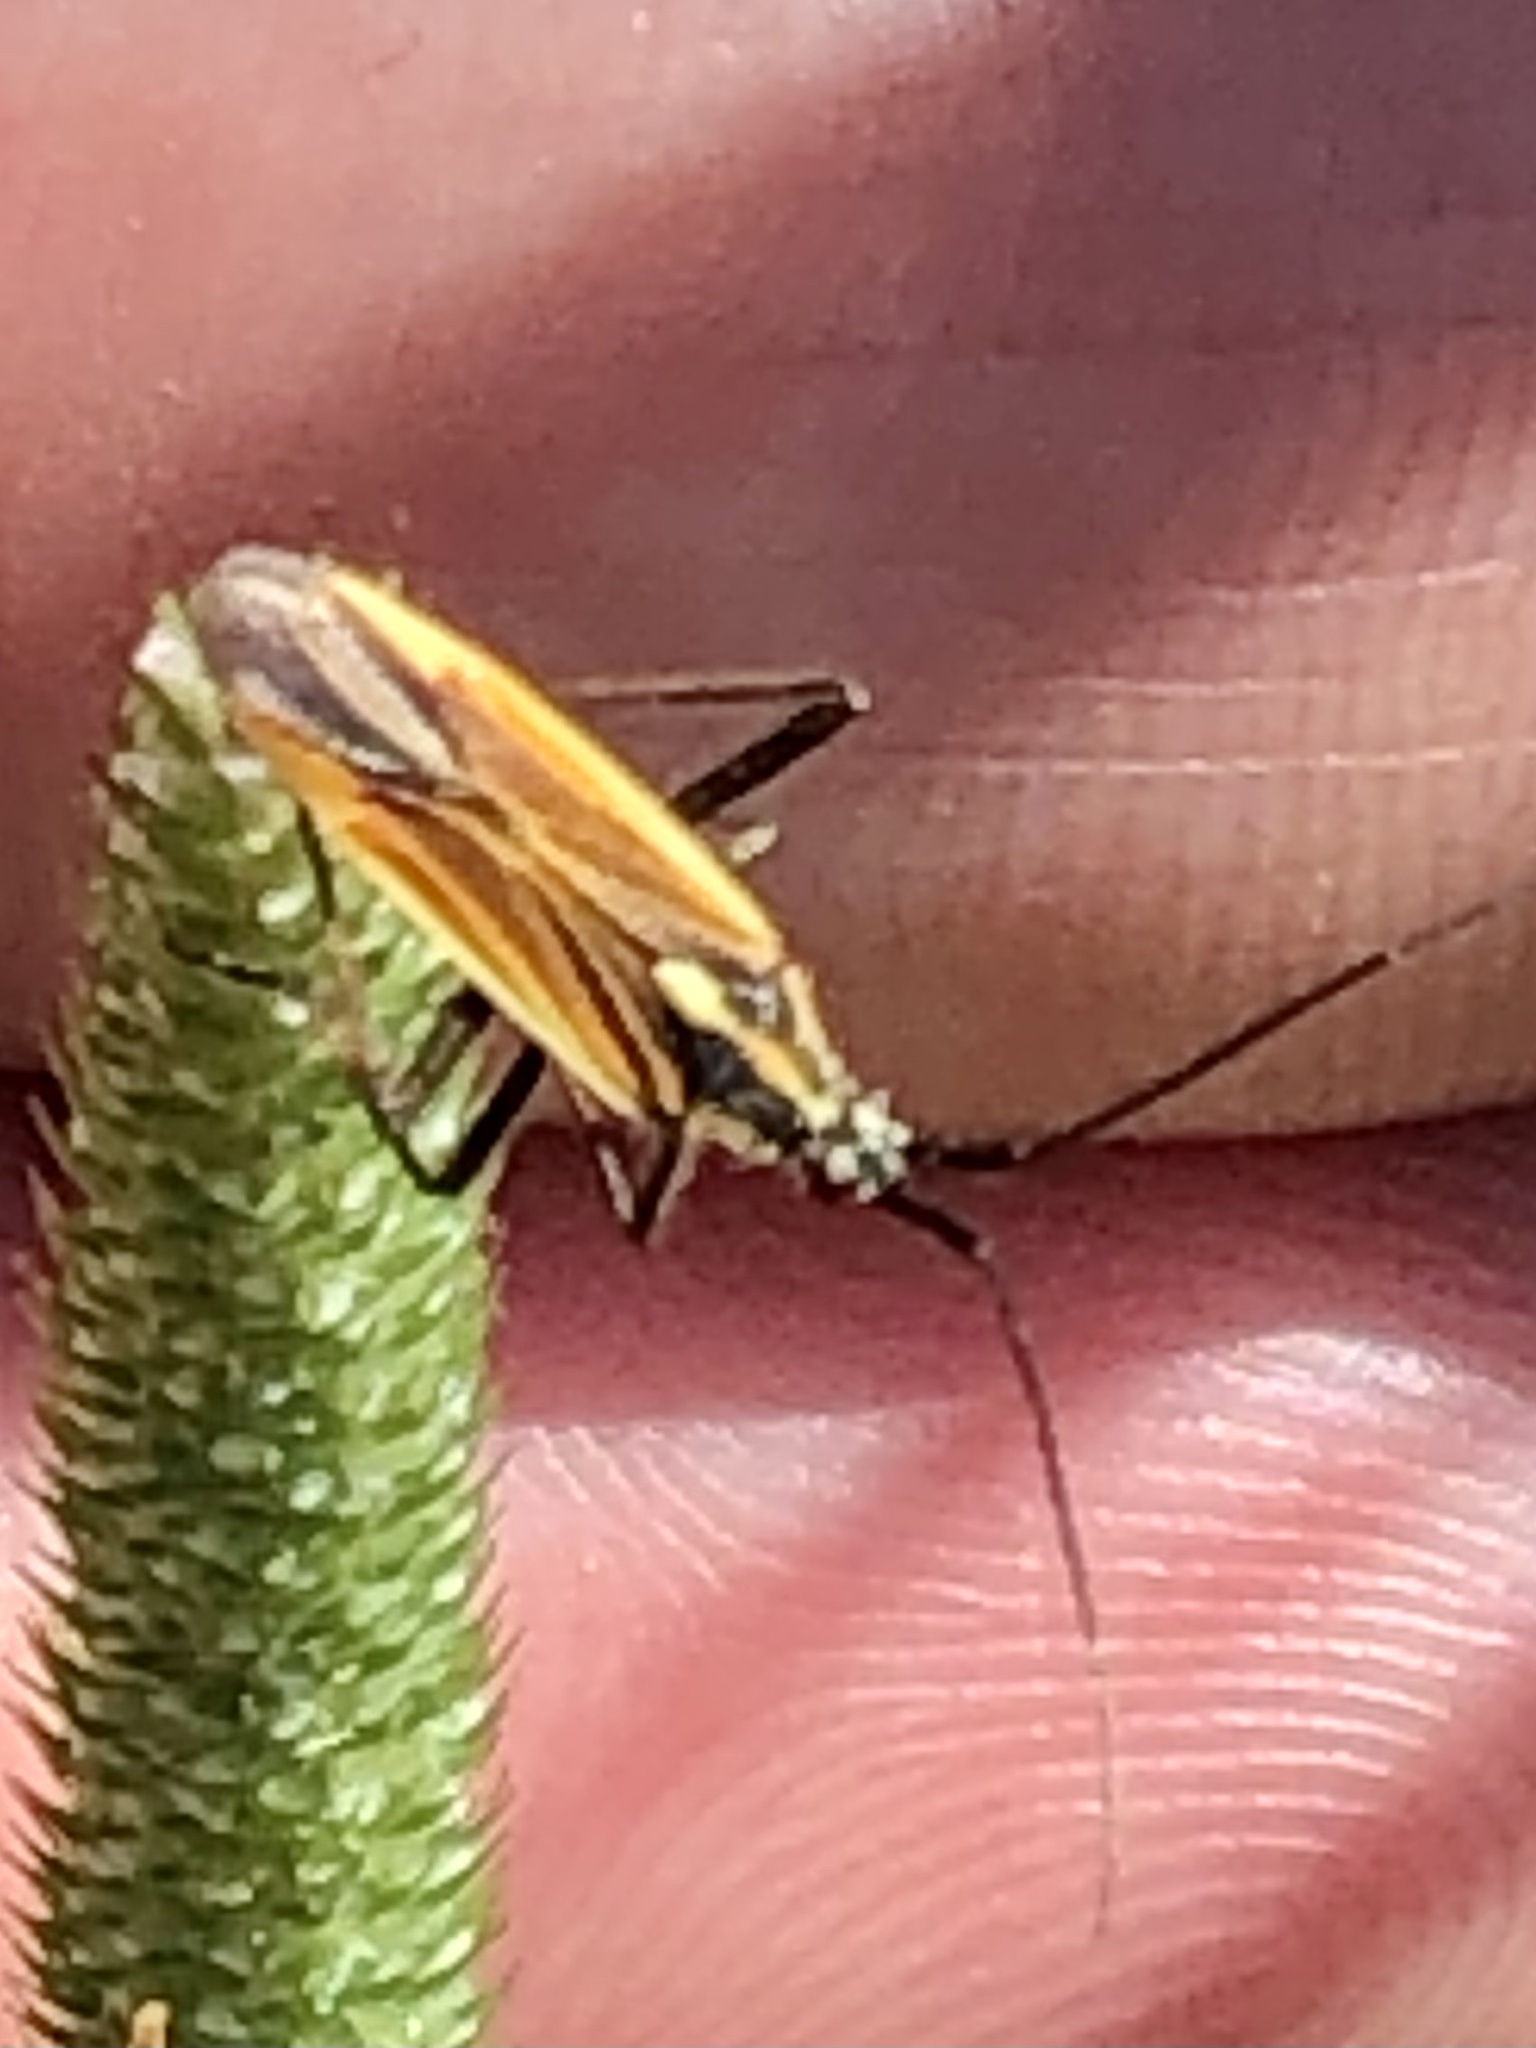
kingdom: Animalia
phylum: Arthropoda
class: Insecta
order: Hemiptera
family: Miridae
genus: Leptopterna
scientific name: Leptopterna dolabrata
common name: Meadow plant bug
